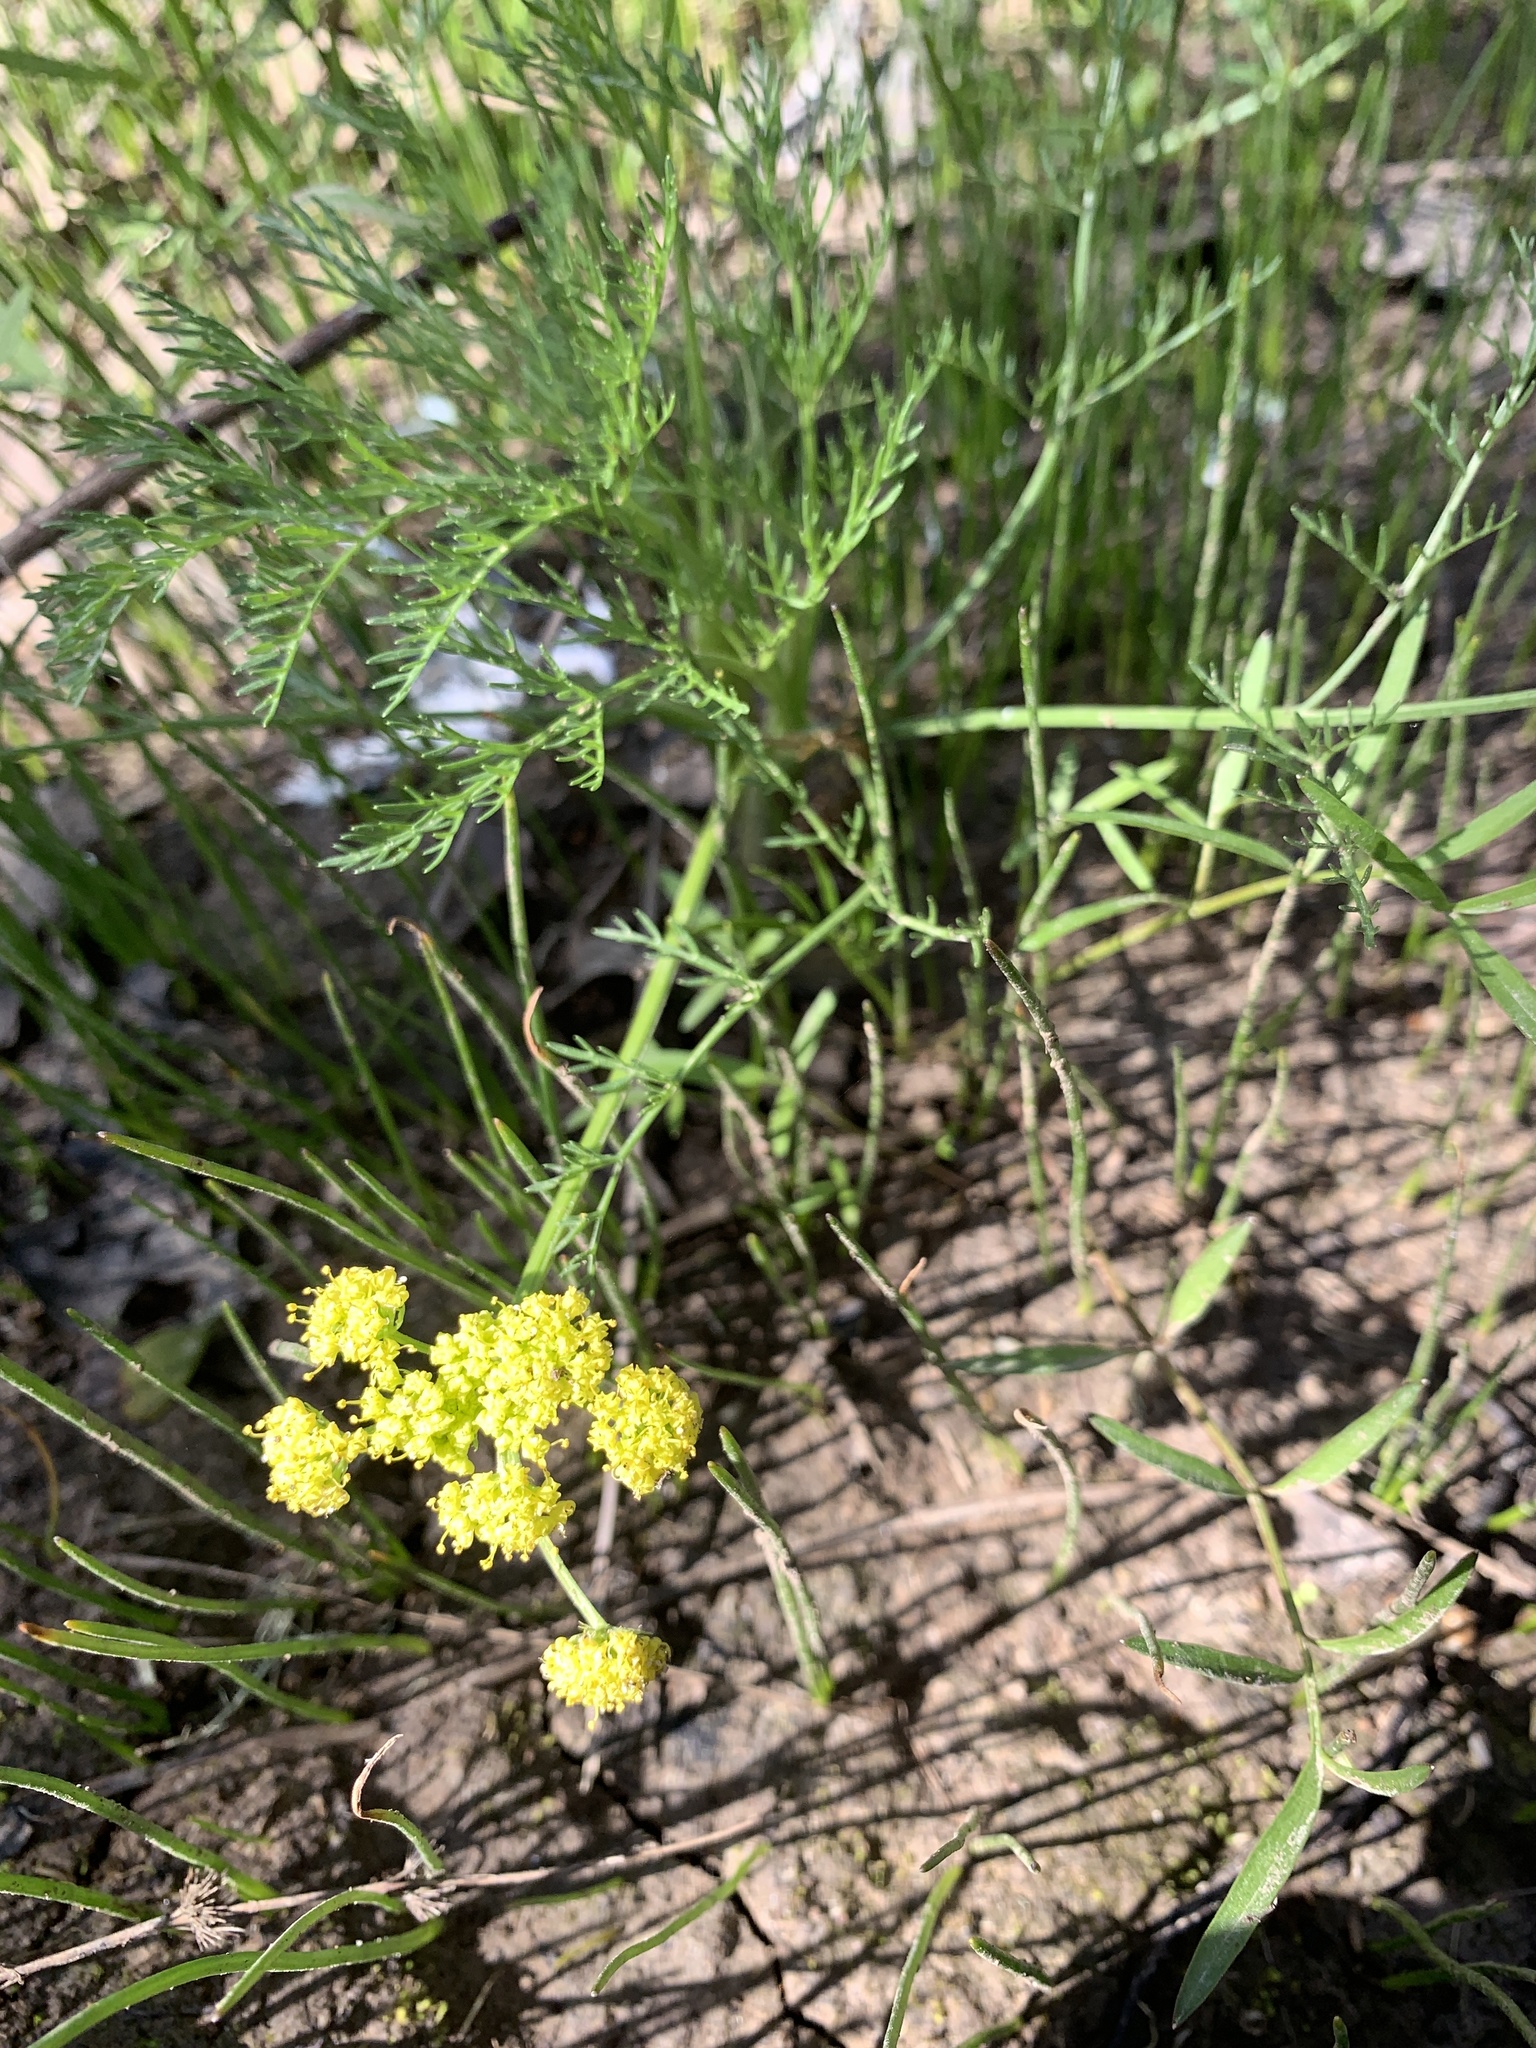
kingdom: Plantae
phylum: Tracheophyta
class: Magnoliopsida
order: Apiales
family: Apiaceae
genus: Lomatium
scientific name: Lomatium bradshawii
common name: Bradshaw's desert-parsley
